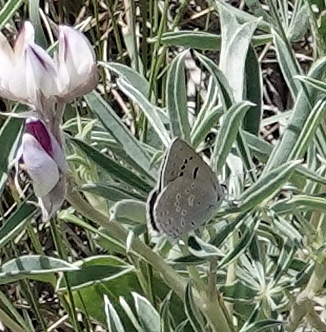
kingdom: Animalia
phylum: Arthropoda
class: Insecta
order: Lepidoptera
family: Lycaenidae
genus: Icaricia
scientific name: Icaricia icarioides
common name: Boisduval's blue
